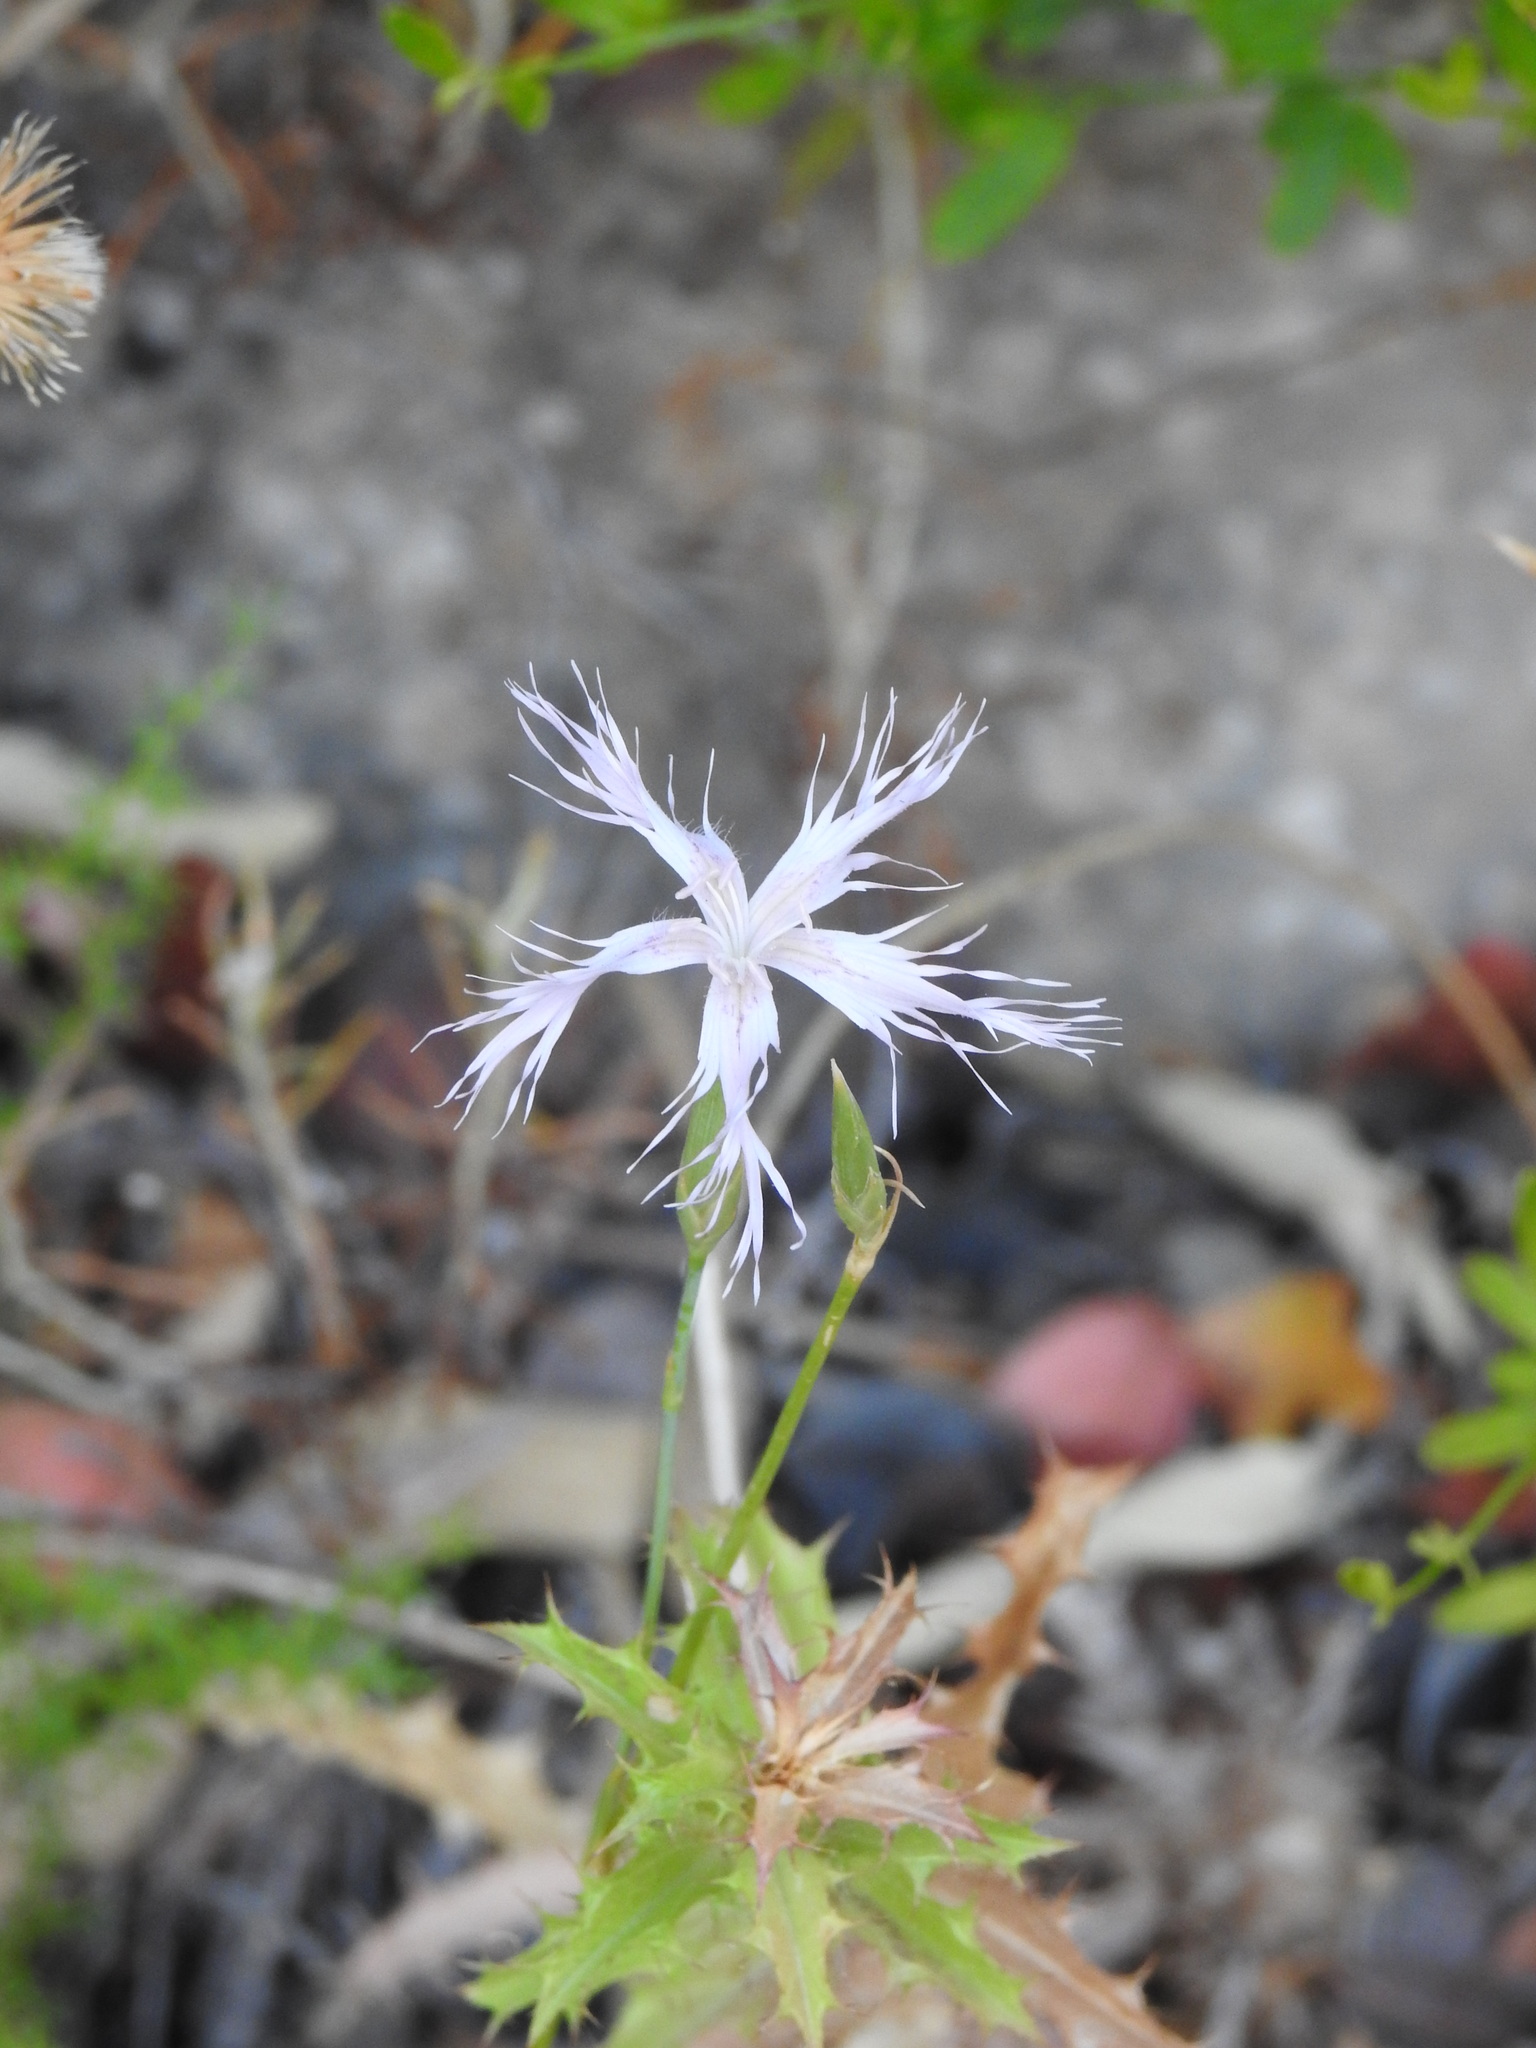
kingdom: Plantae
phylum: Tracheophyta
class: Magnoliopsida
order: Caryophyllales
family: Caryophyllaceae
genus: Dianthus
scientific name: Dianthus broteri
